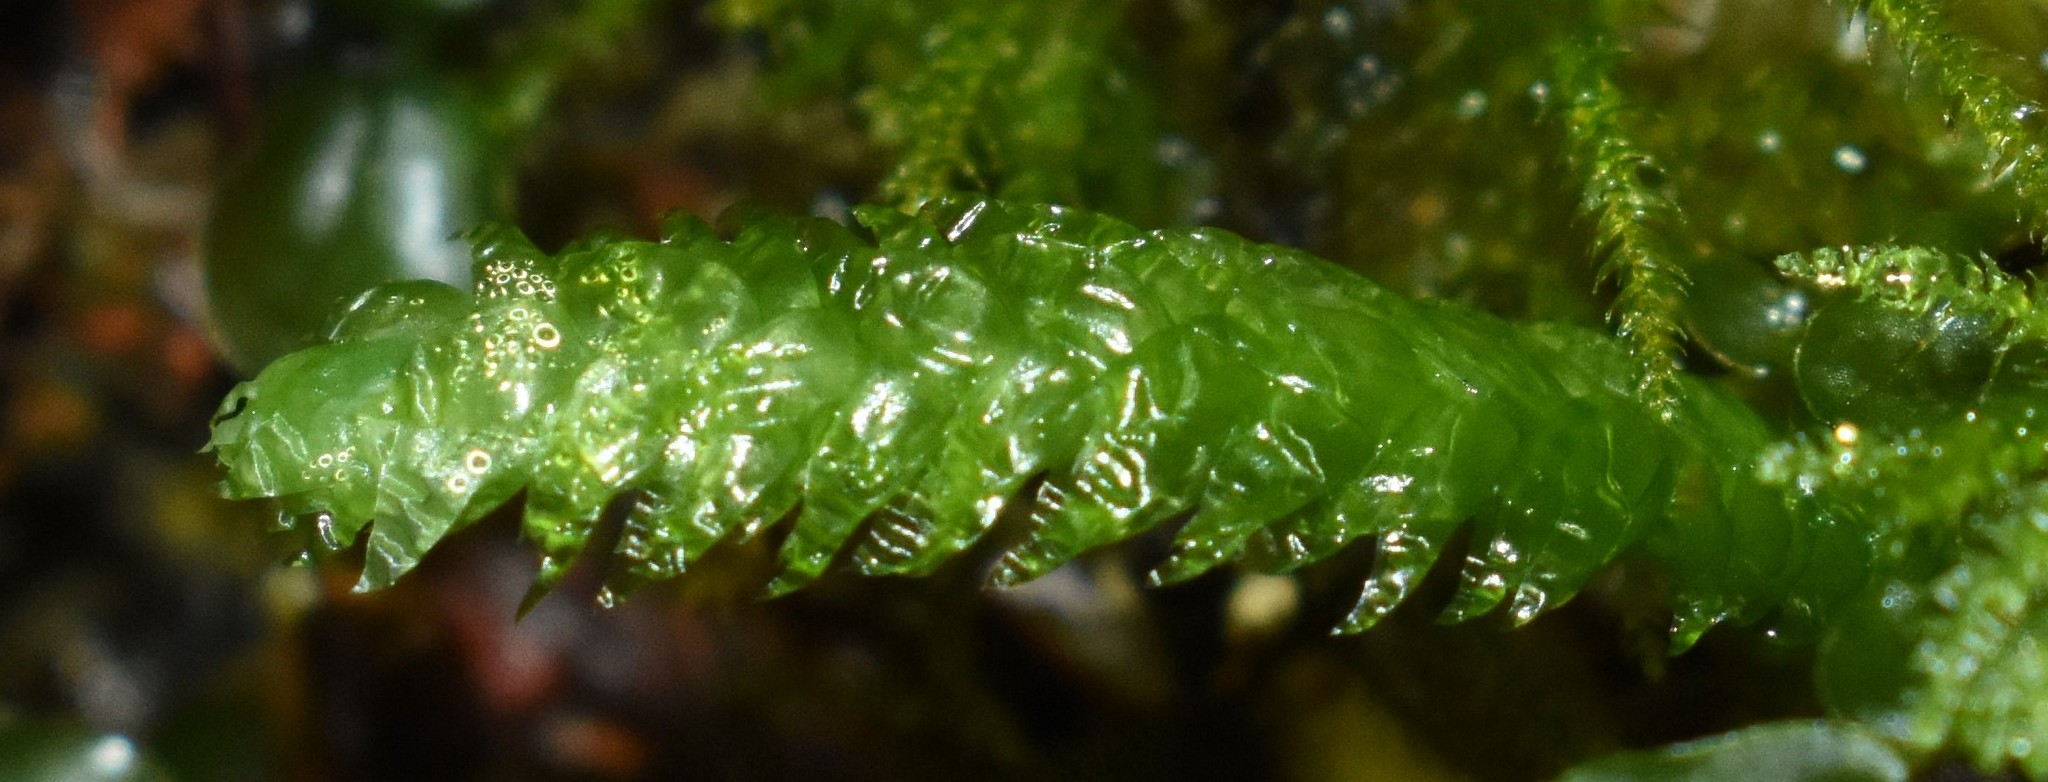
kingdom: Plantae
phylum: Bryophyta
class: Bryopsida
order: Hypnales
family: Plagiotheciaceae
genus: Plagiothecium
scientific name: Plagiothecium undulatum
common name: Waved silk-moss
